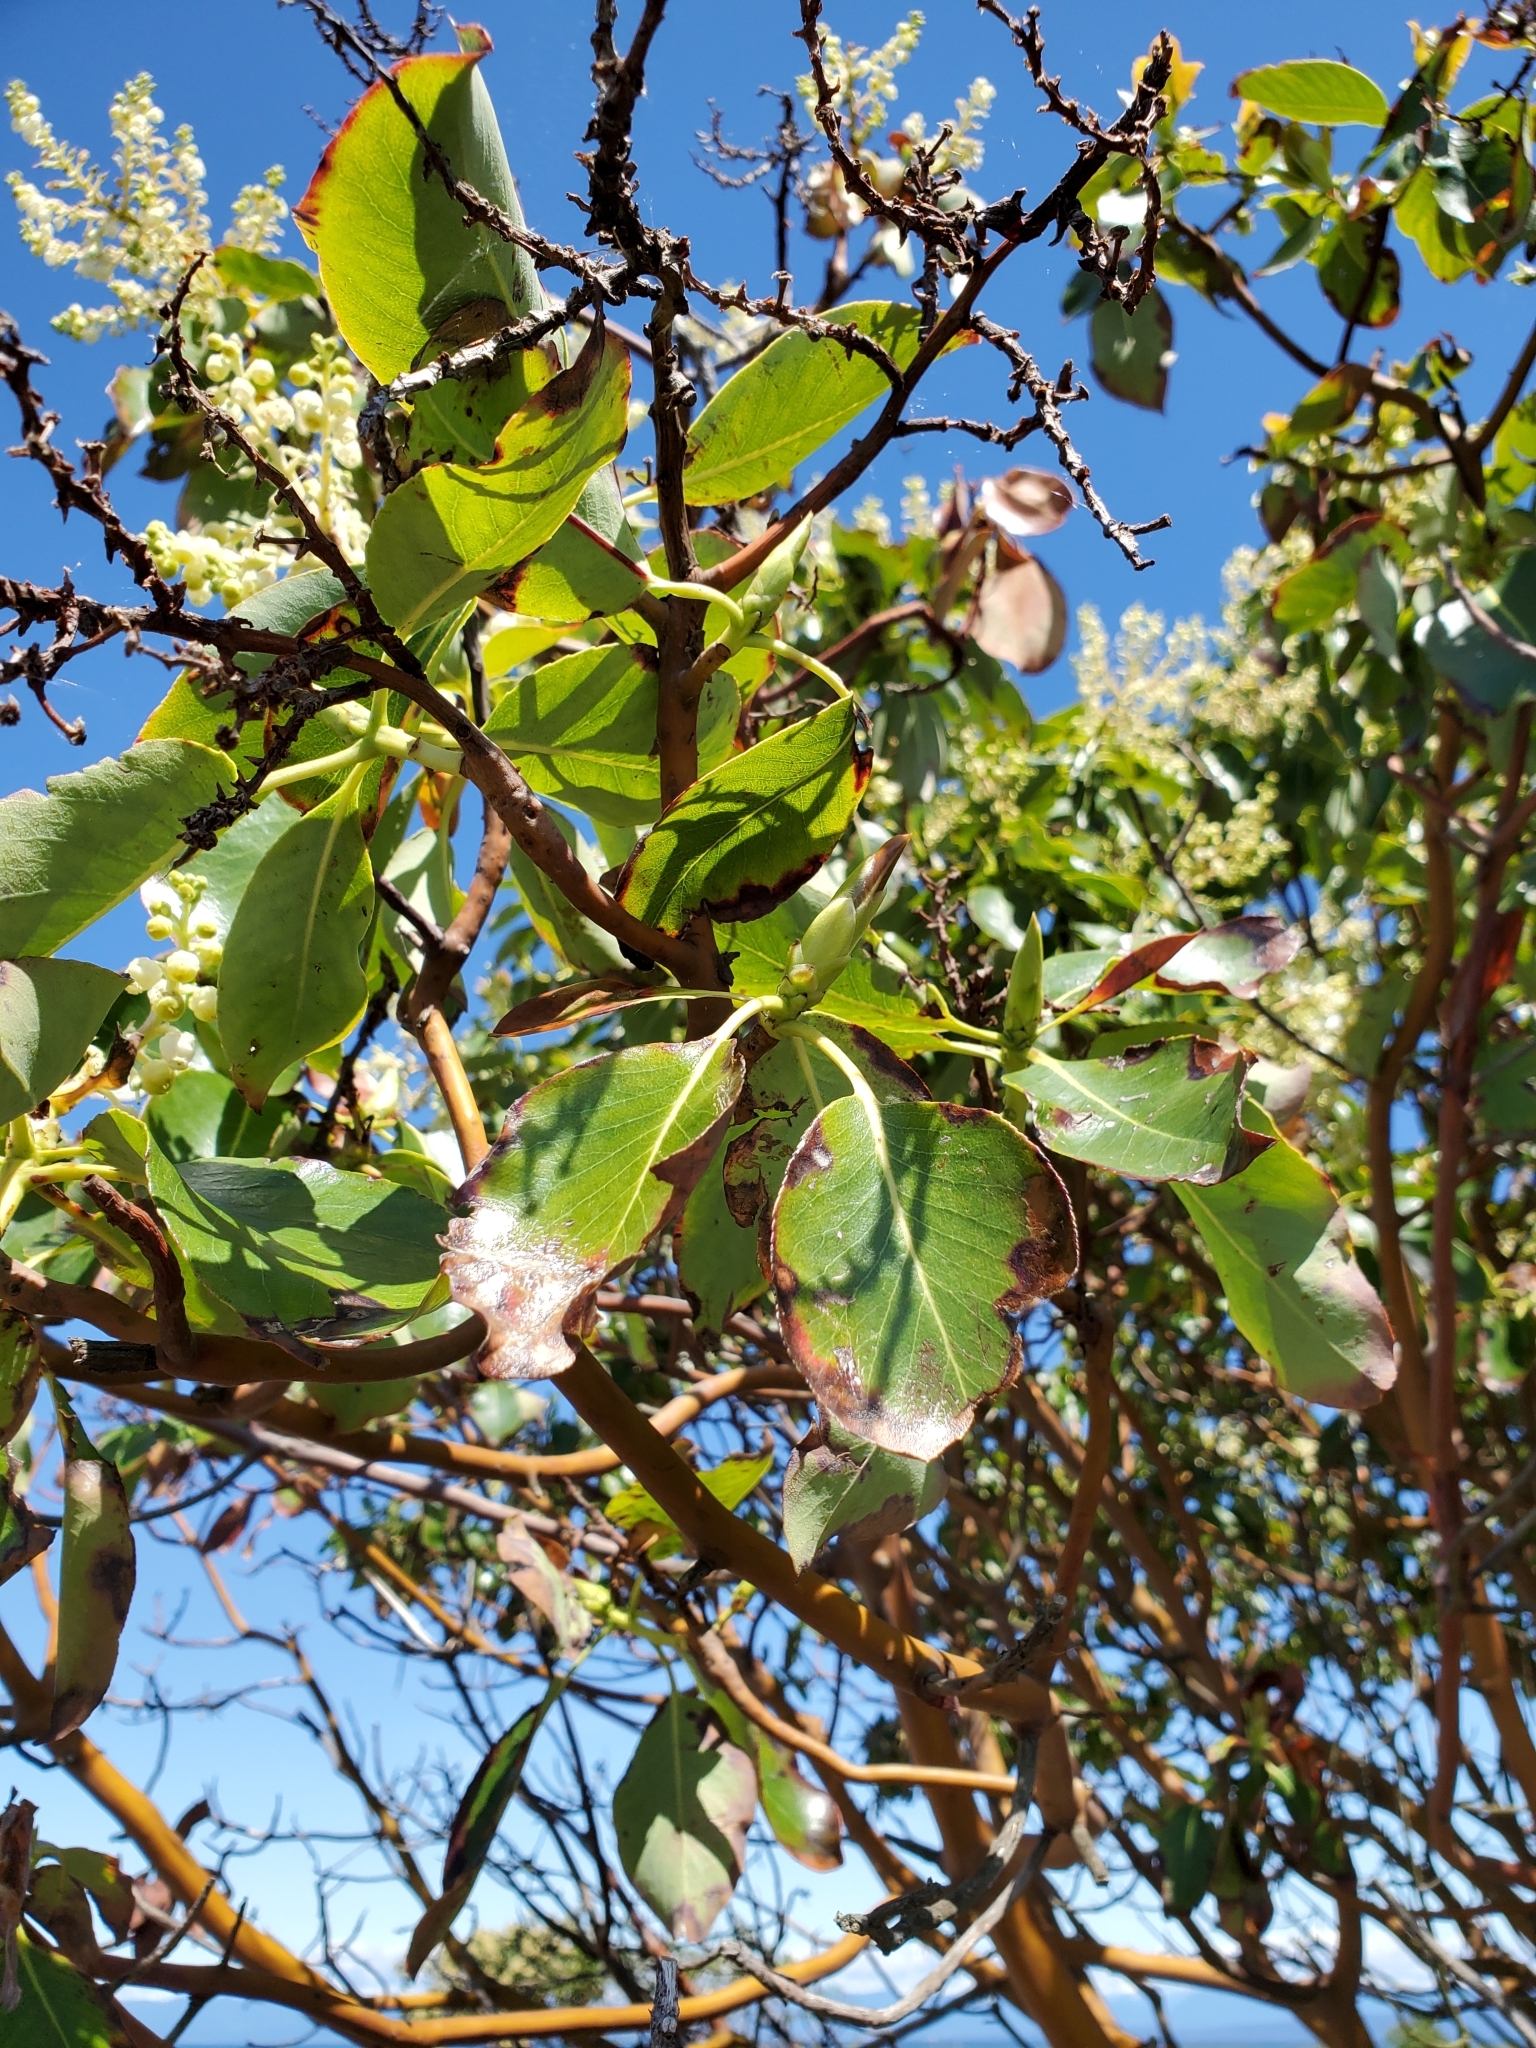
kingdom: Plantae
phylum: Tracheophyta
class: Magnoliopsida
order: Ericales
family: Ericaceae
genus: Arbutus
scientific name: Arbutus menziesii
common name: Pacific madrone
